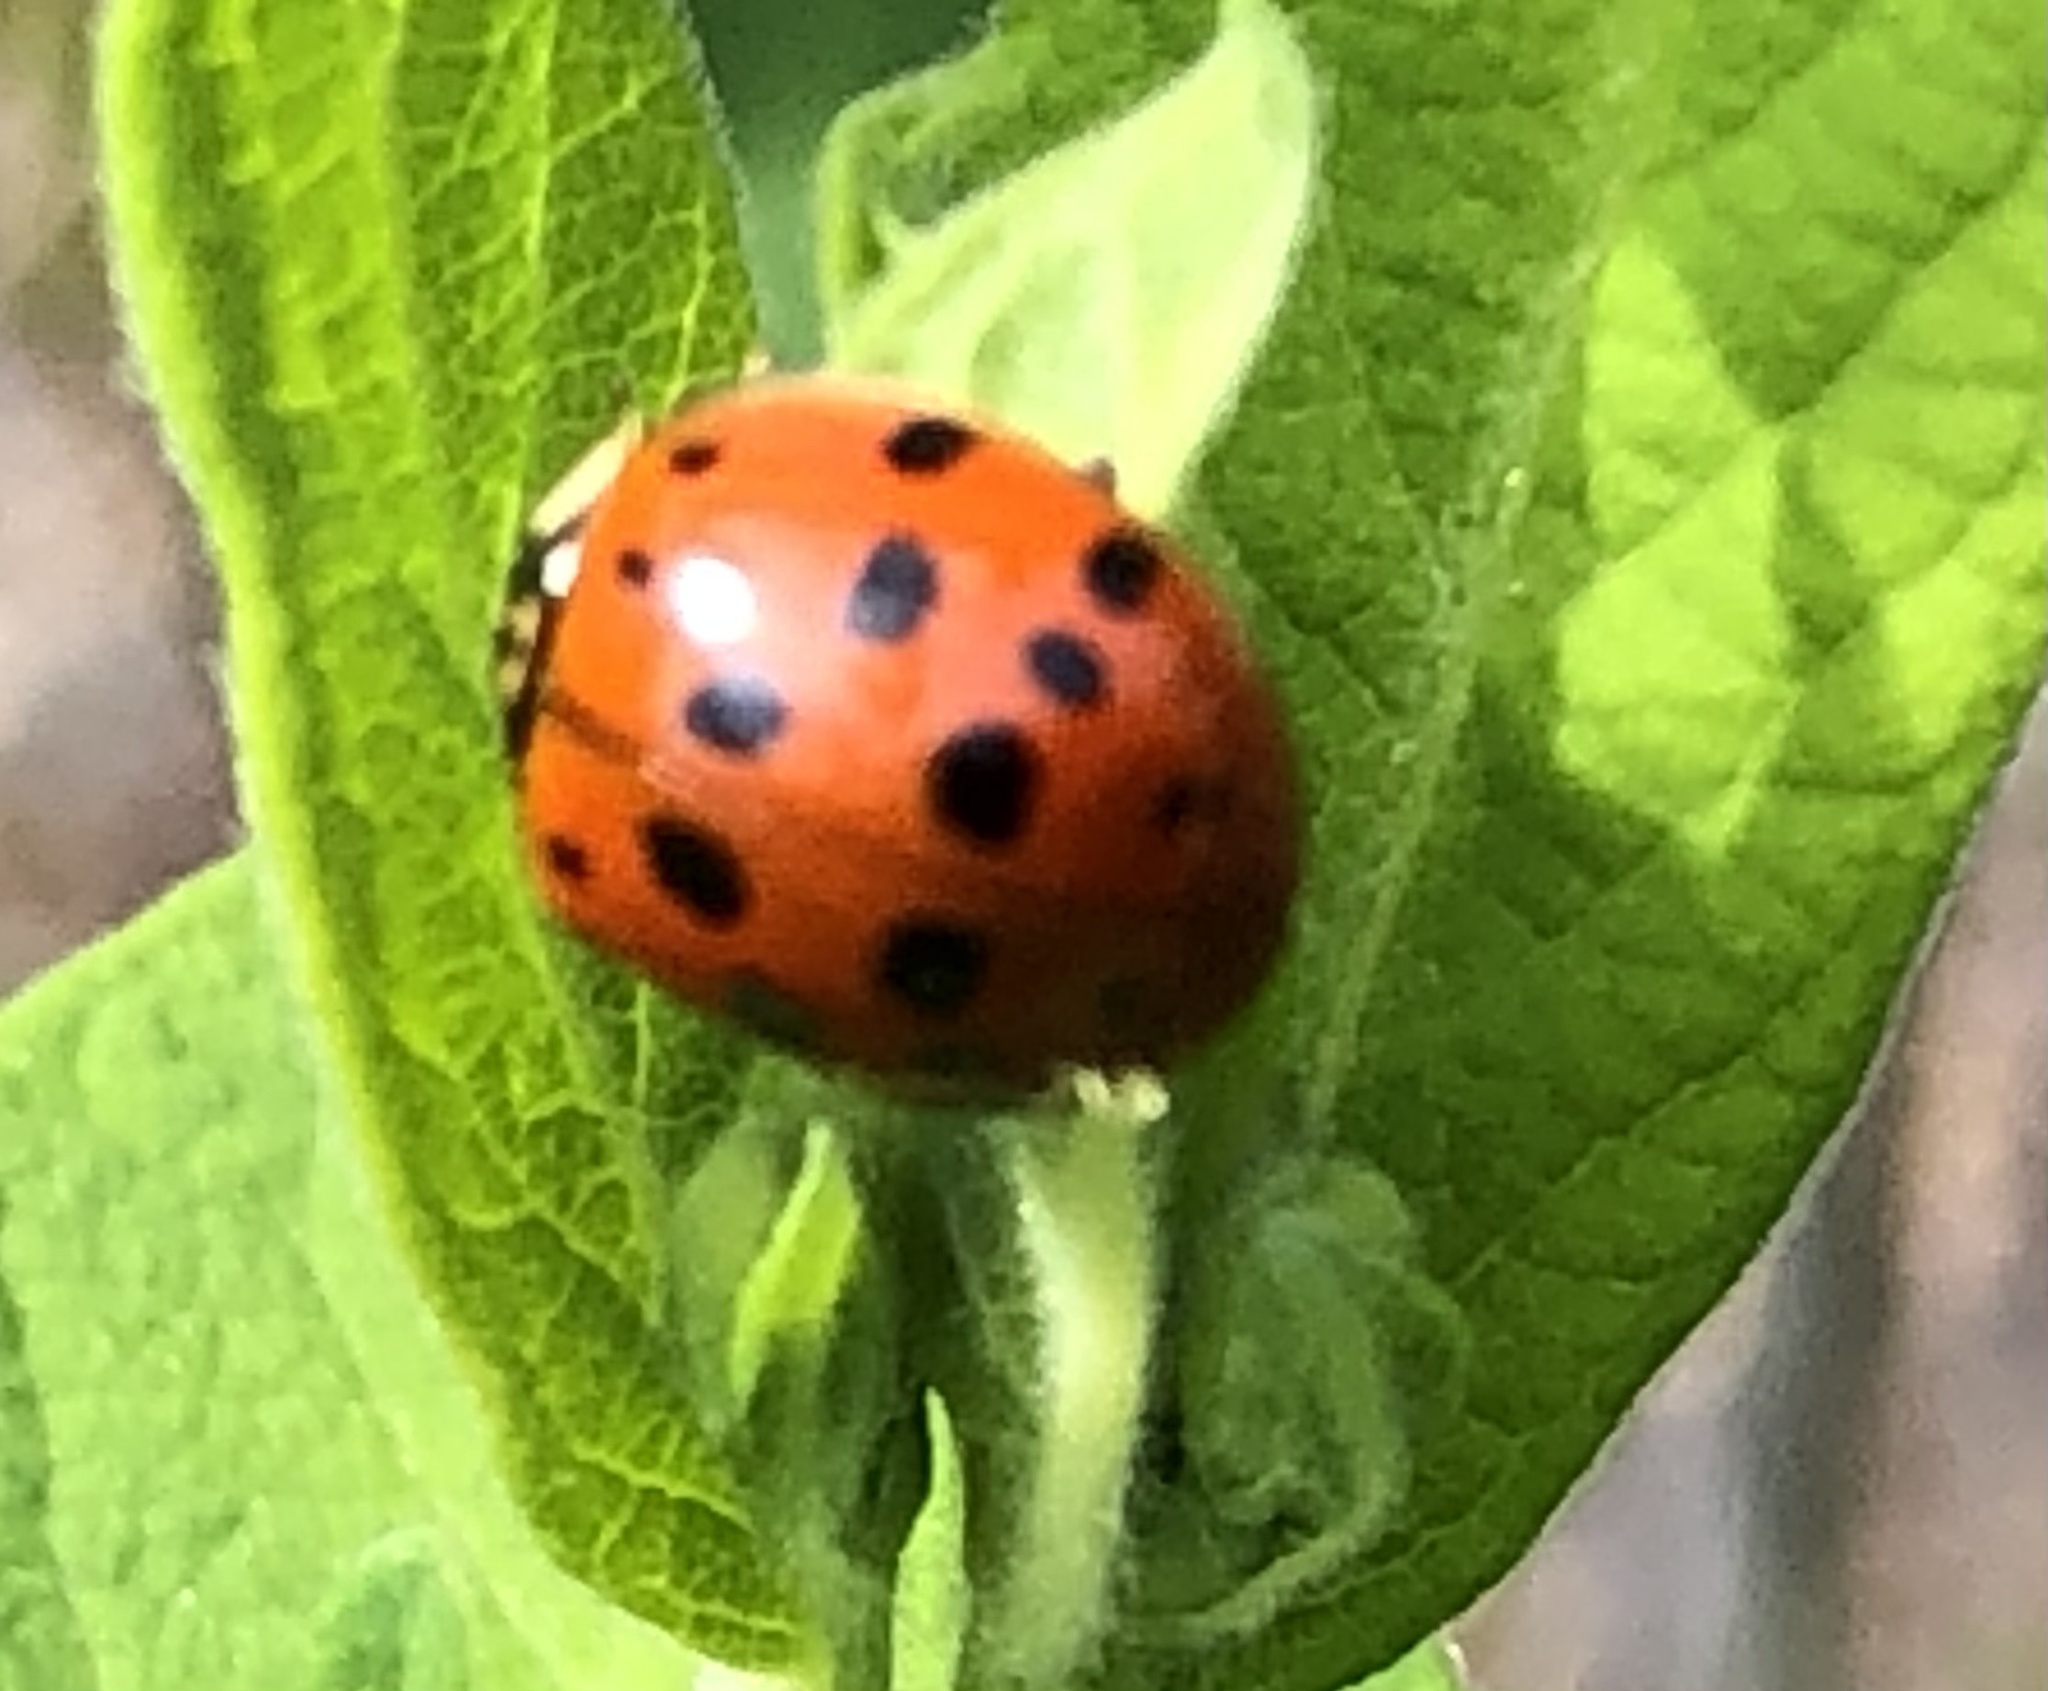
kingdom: Animalia
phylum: Arthropoda
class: Insecta
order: Coleoptera
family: Coccinellidae
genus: Harmonia
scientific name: Harmonia axyridis
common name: Harlequin ladybird
